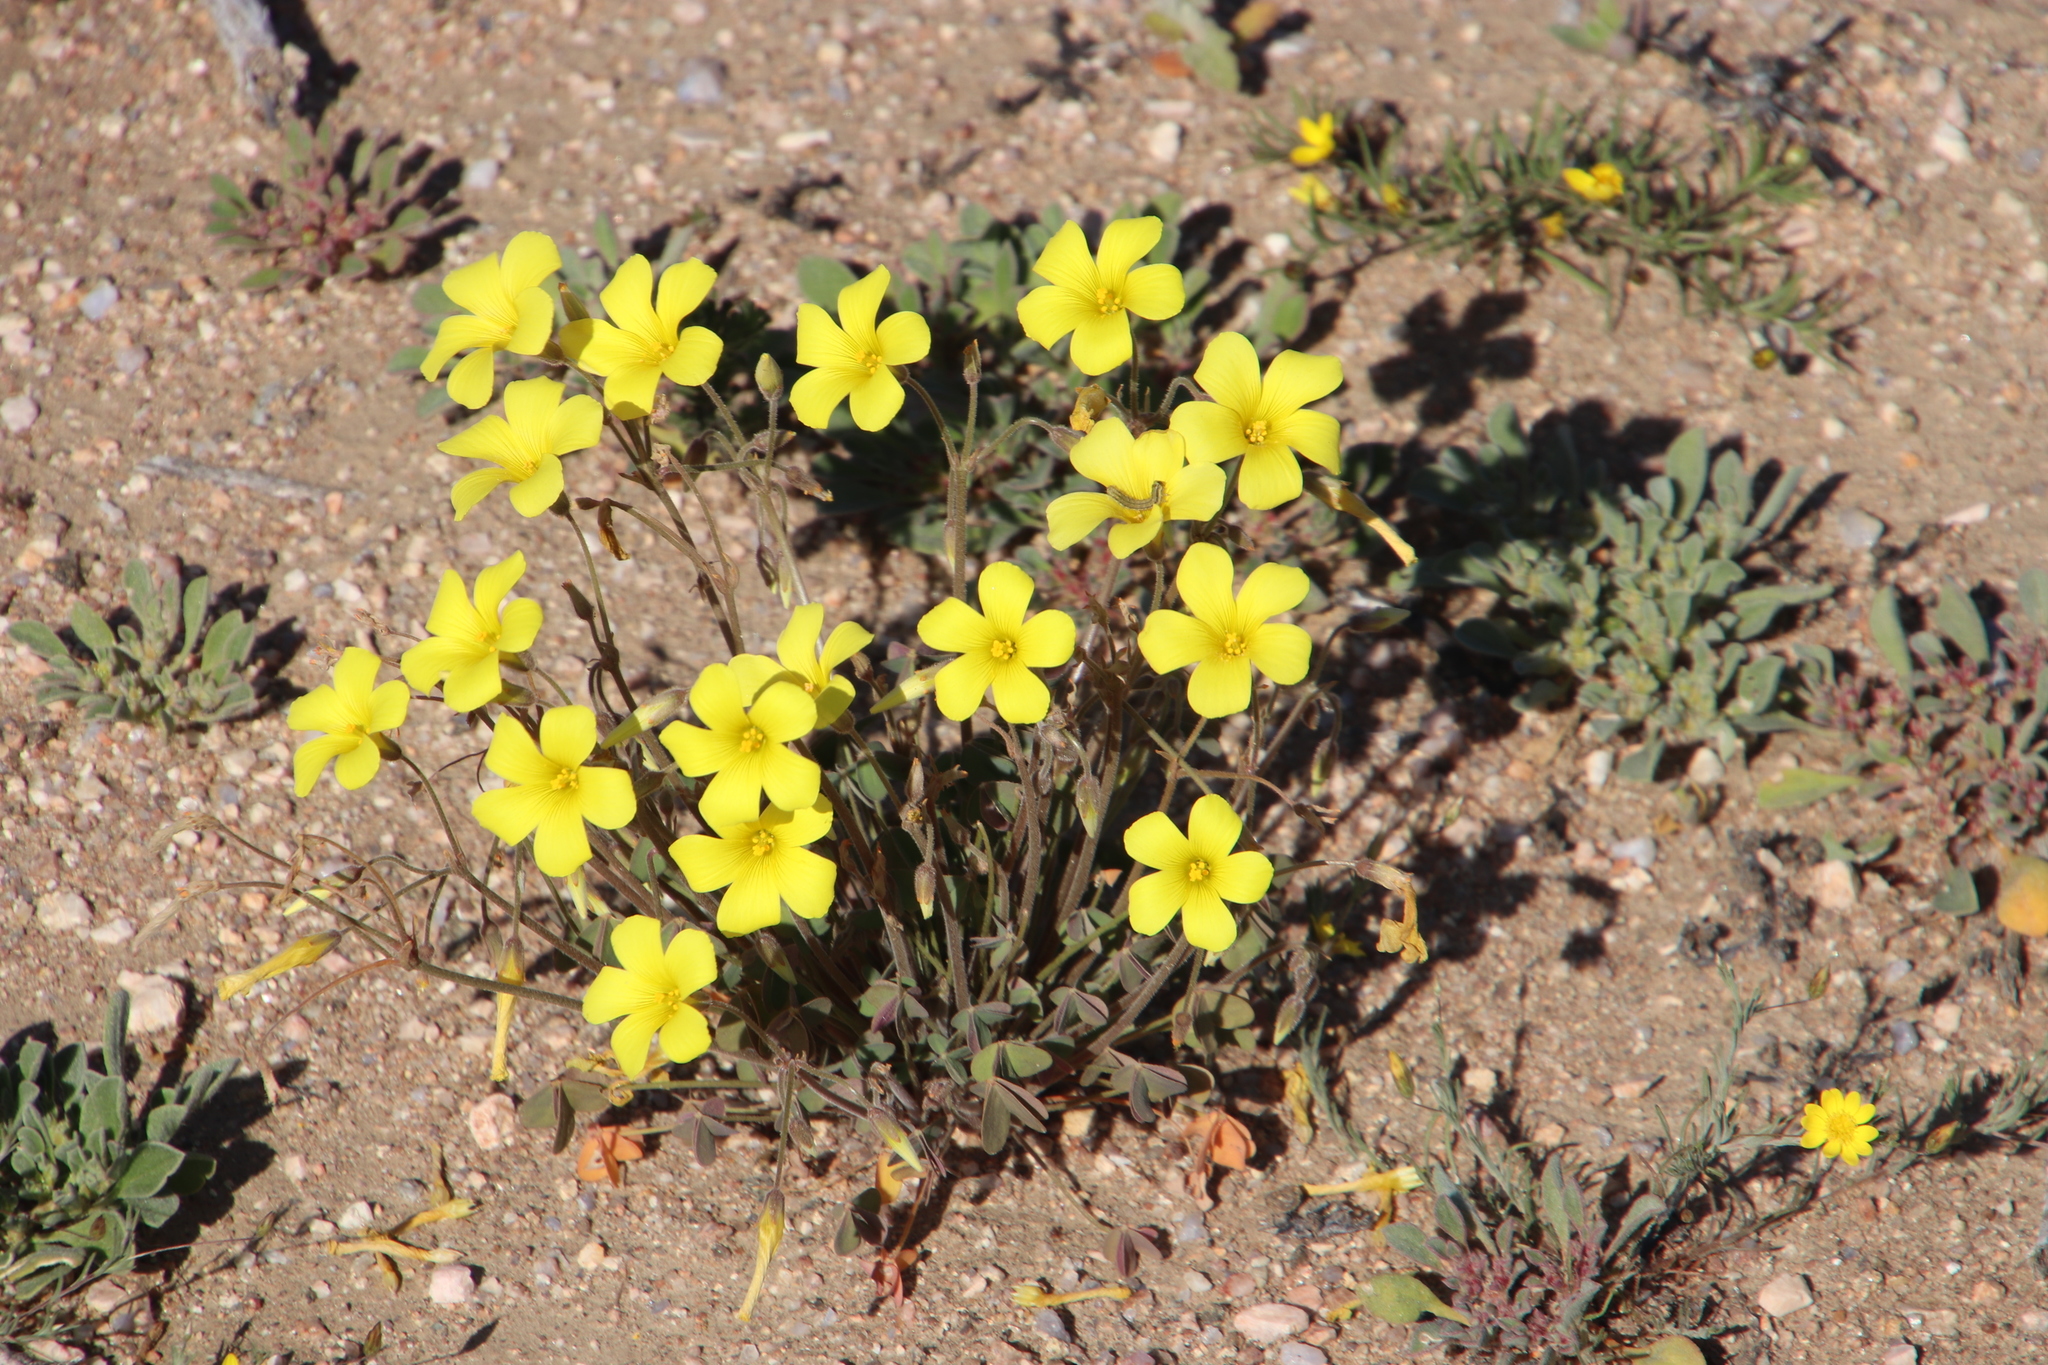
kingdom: Plantae
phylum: Tracheophyta
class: Magnoliopsida
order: Oxalidales
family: Oxalidaceae
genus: Oxalis
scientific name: Oxalis copiosa
